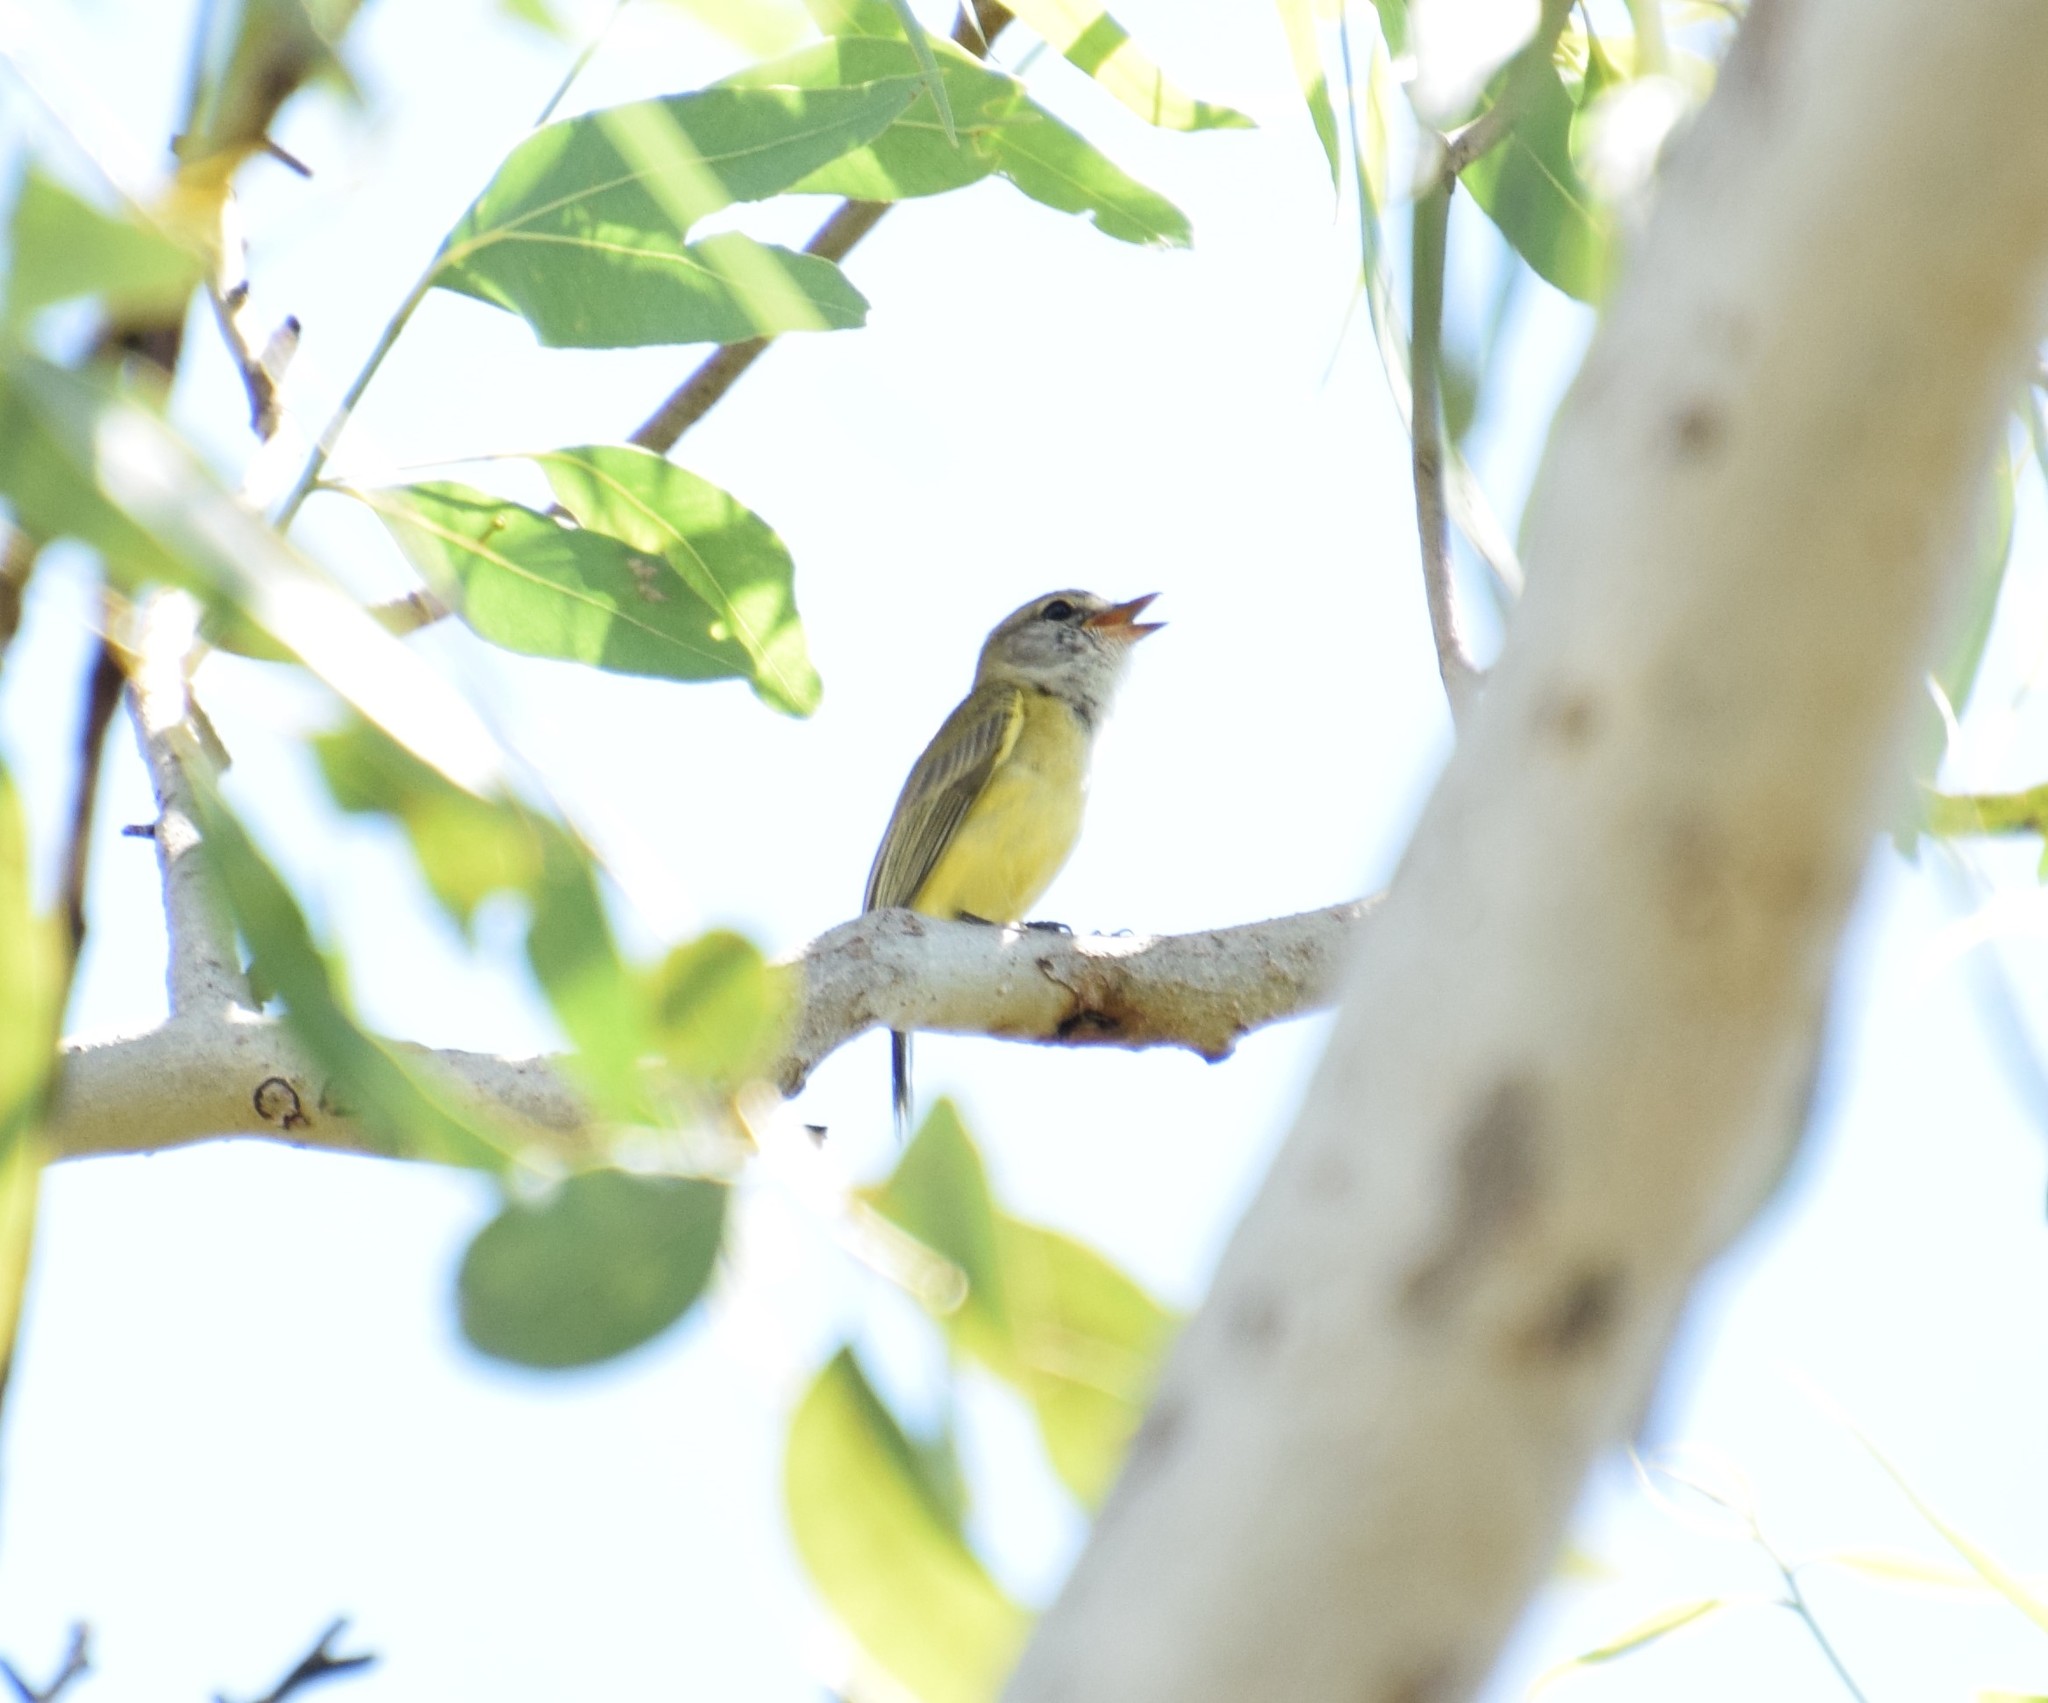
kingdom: Animalia
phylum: Chordata
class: Aves
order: Passeriformes
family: Petroicidae
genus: Microeca
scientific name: Microeca flavigaster
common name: Lemon-bellied flyrobin
